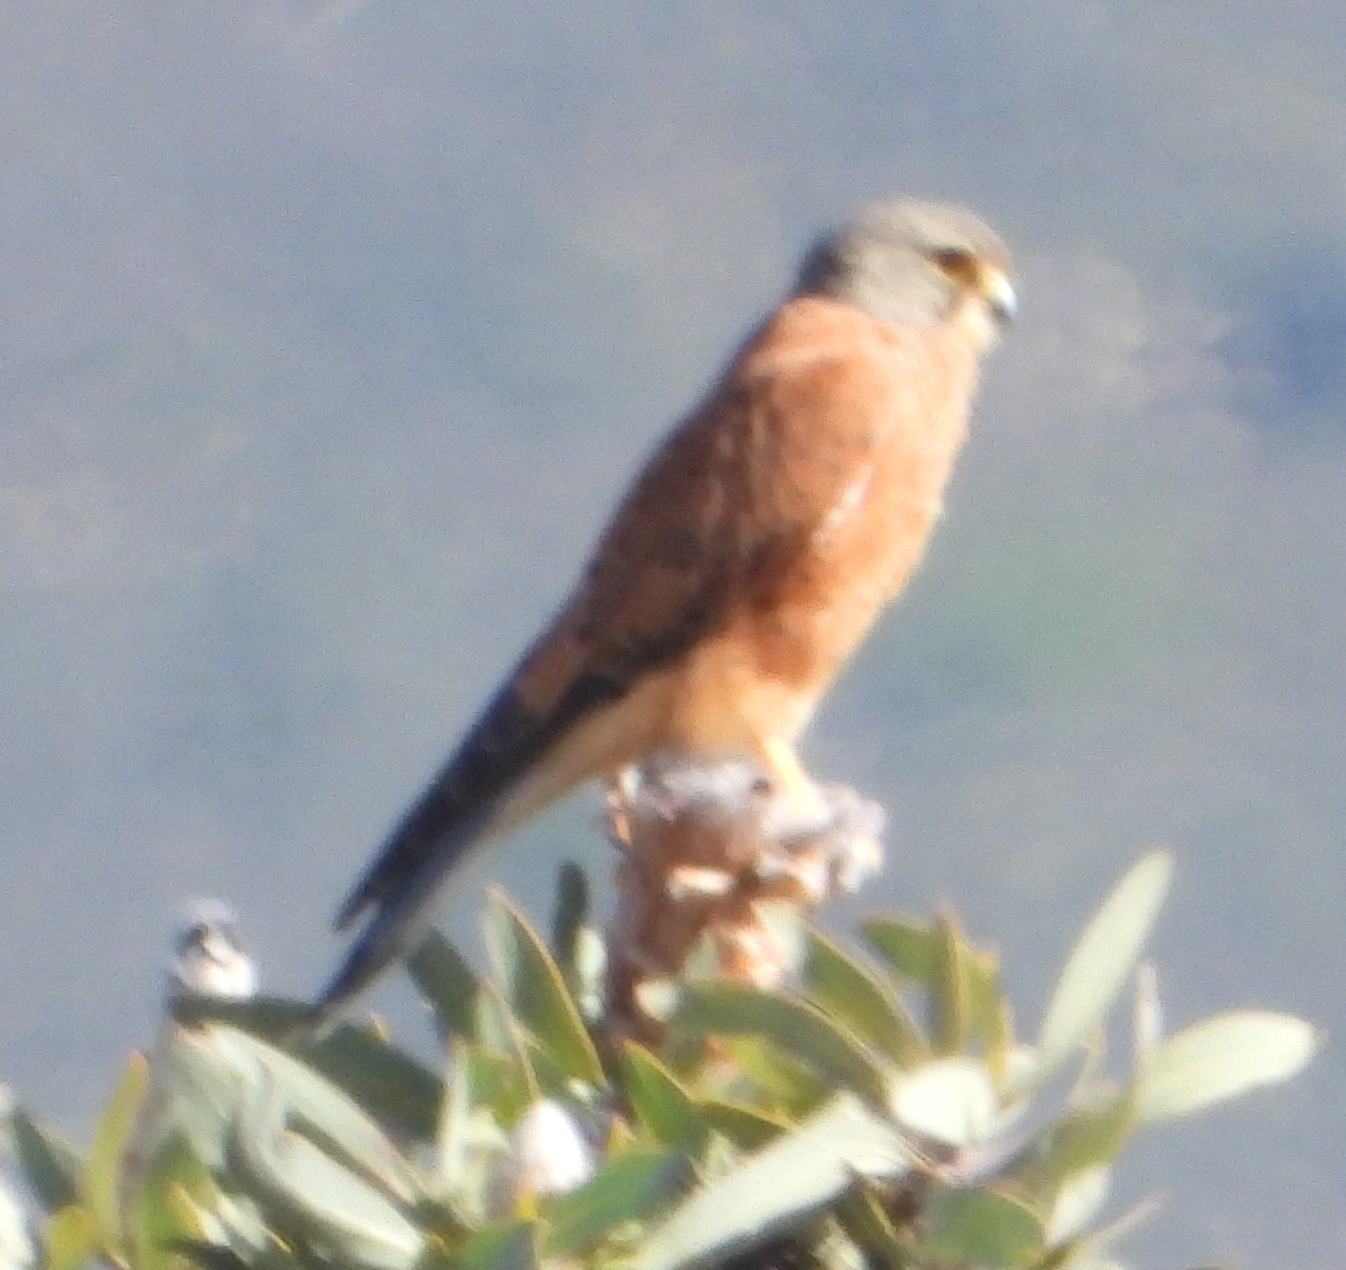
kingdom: Animalia
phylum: Chordata
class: Aves
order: Falconiformes
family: Falconidae
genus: Falco
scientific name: Falco rupicolus
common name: Rock kestrel
